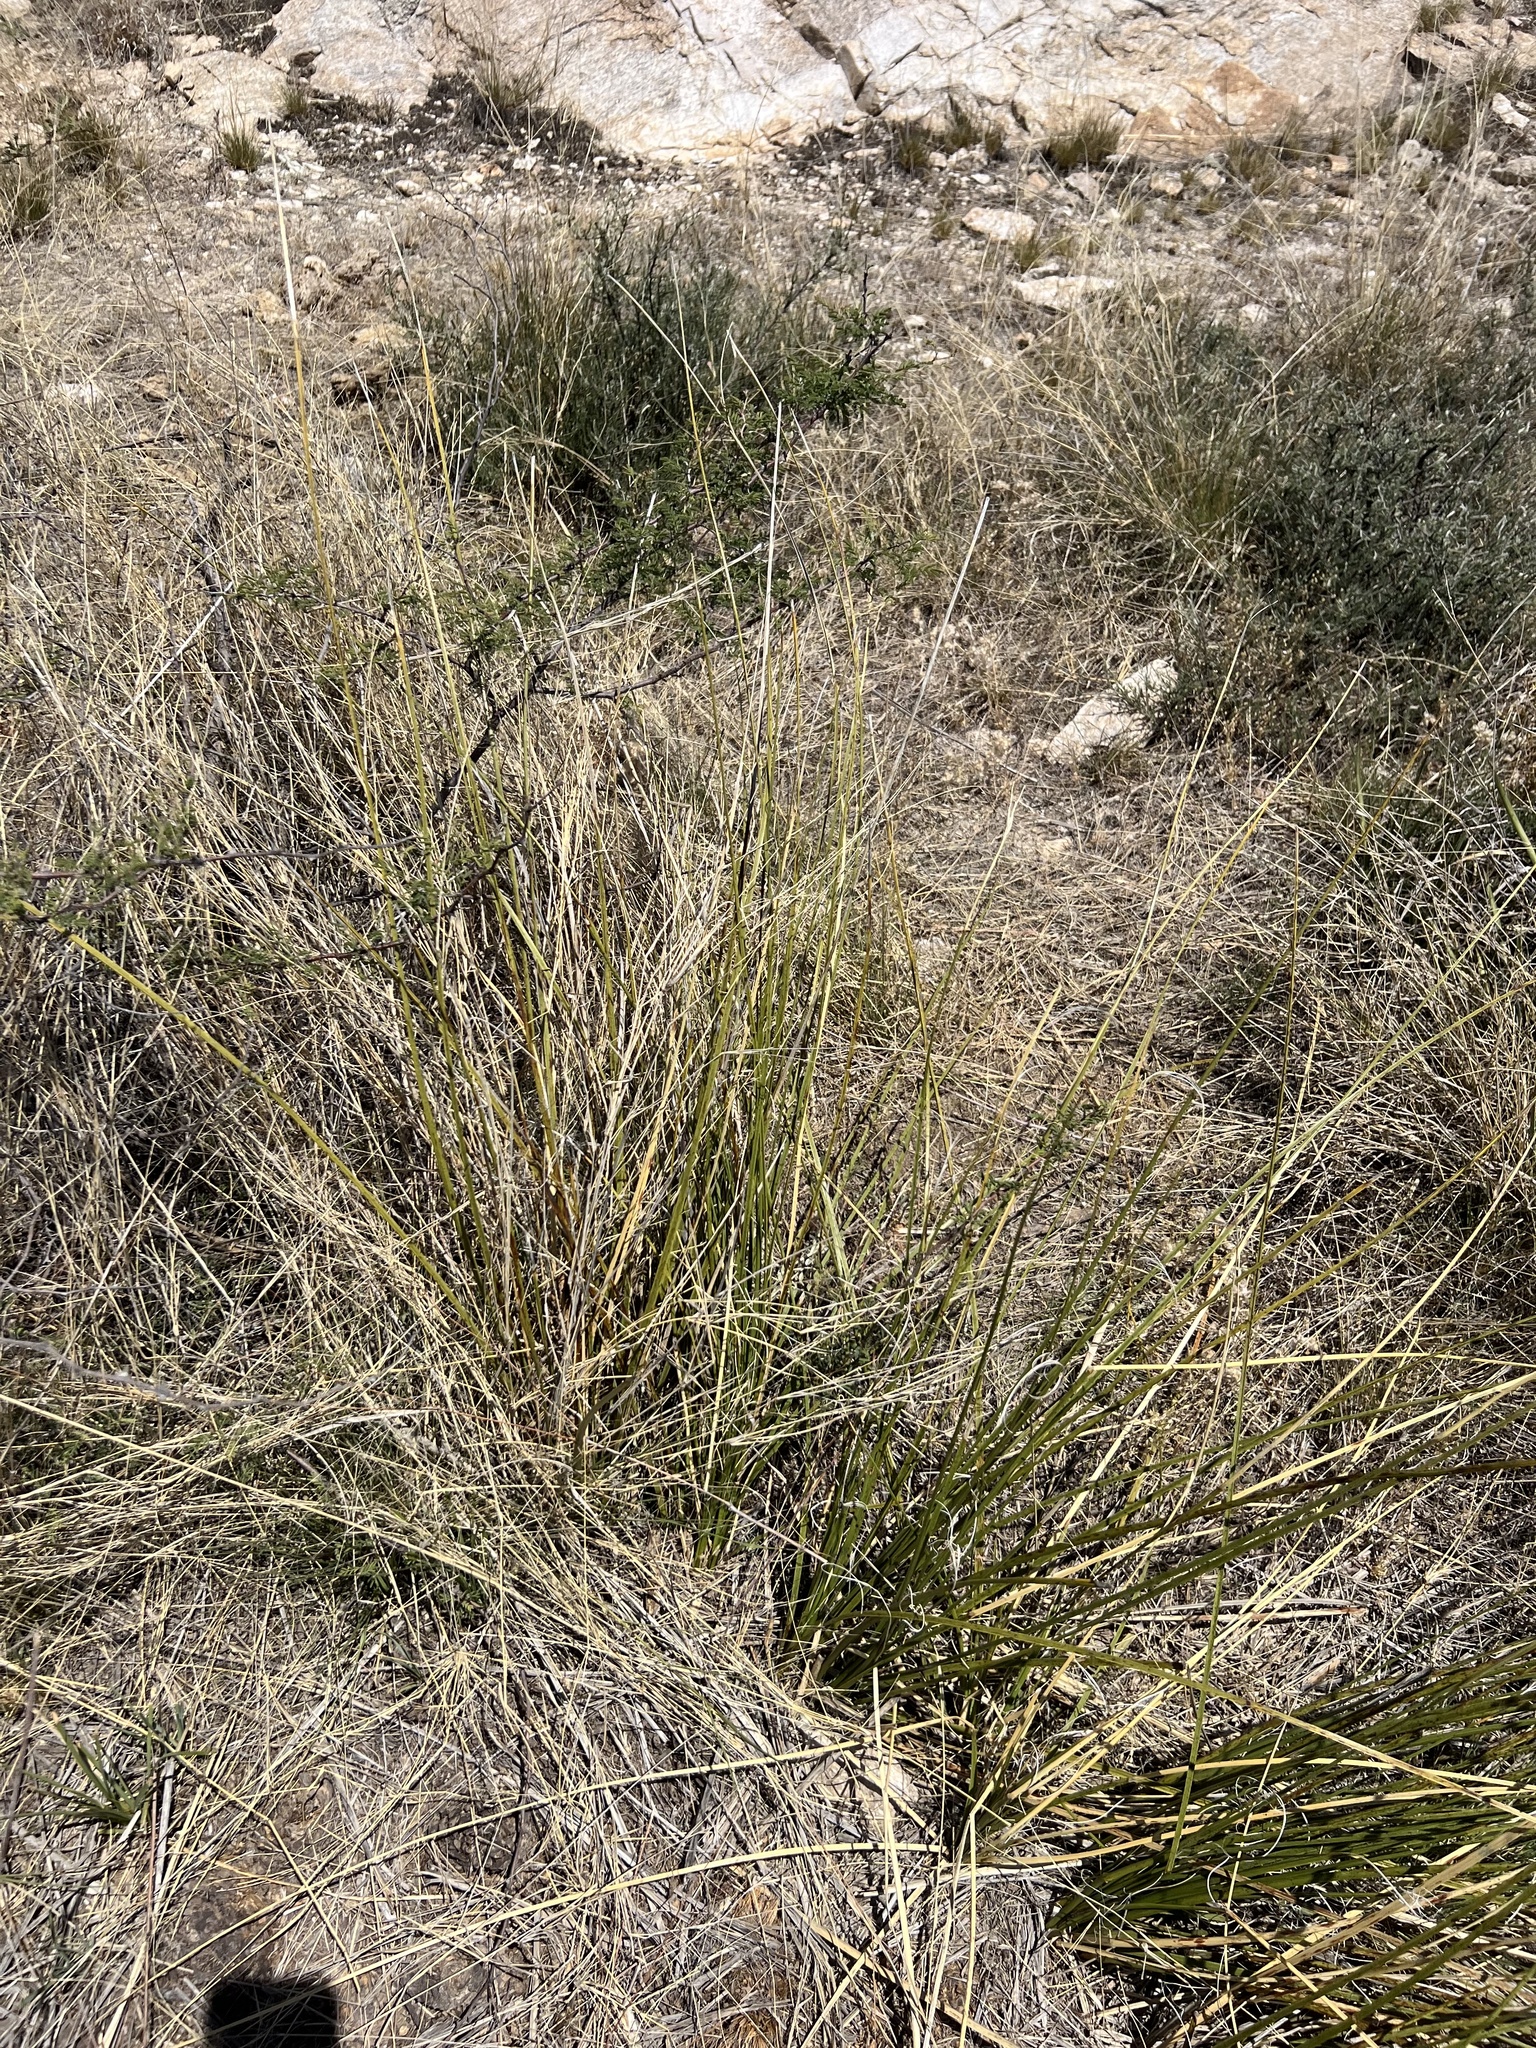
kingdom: Plantae
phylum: Tracheophyta
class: Liliopsida
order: Asparagales
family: Asparagaceae
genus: Nolina
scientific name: Nolina microcarpa
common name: Bear-grass
